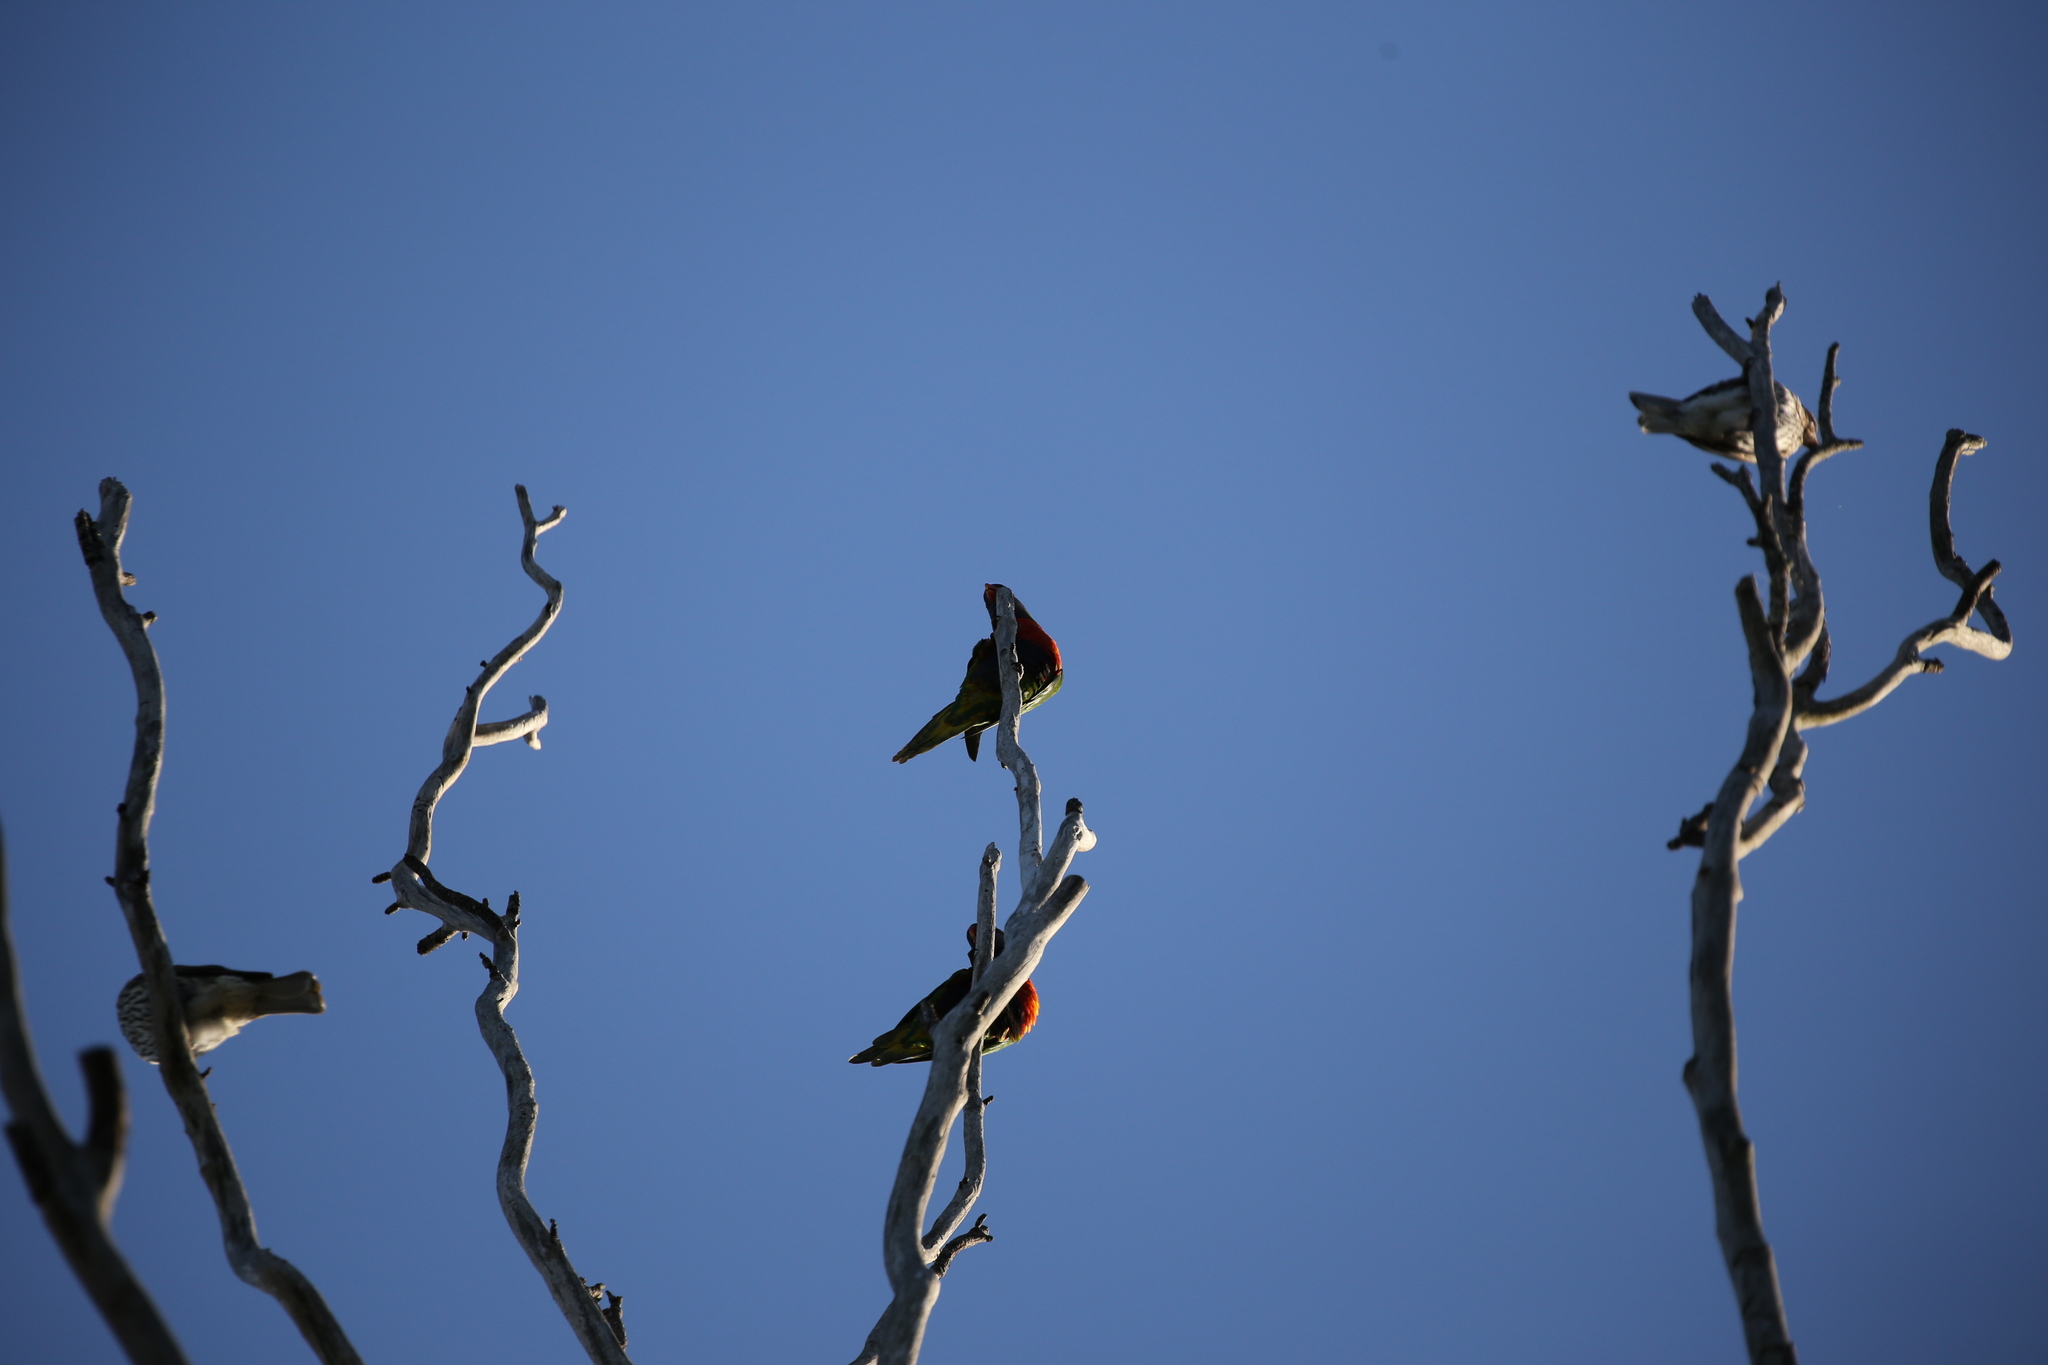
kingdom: Animalia
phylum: Chordata
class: Aves
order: Psittaciformes
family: Psittacidae
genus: Trichoglossus
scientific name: Trichoglossus haematodus
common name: Coconut lorikeet
